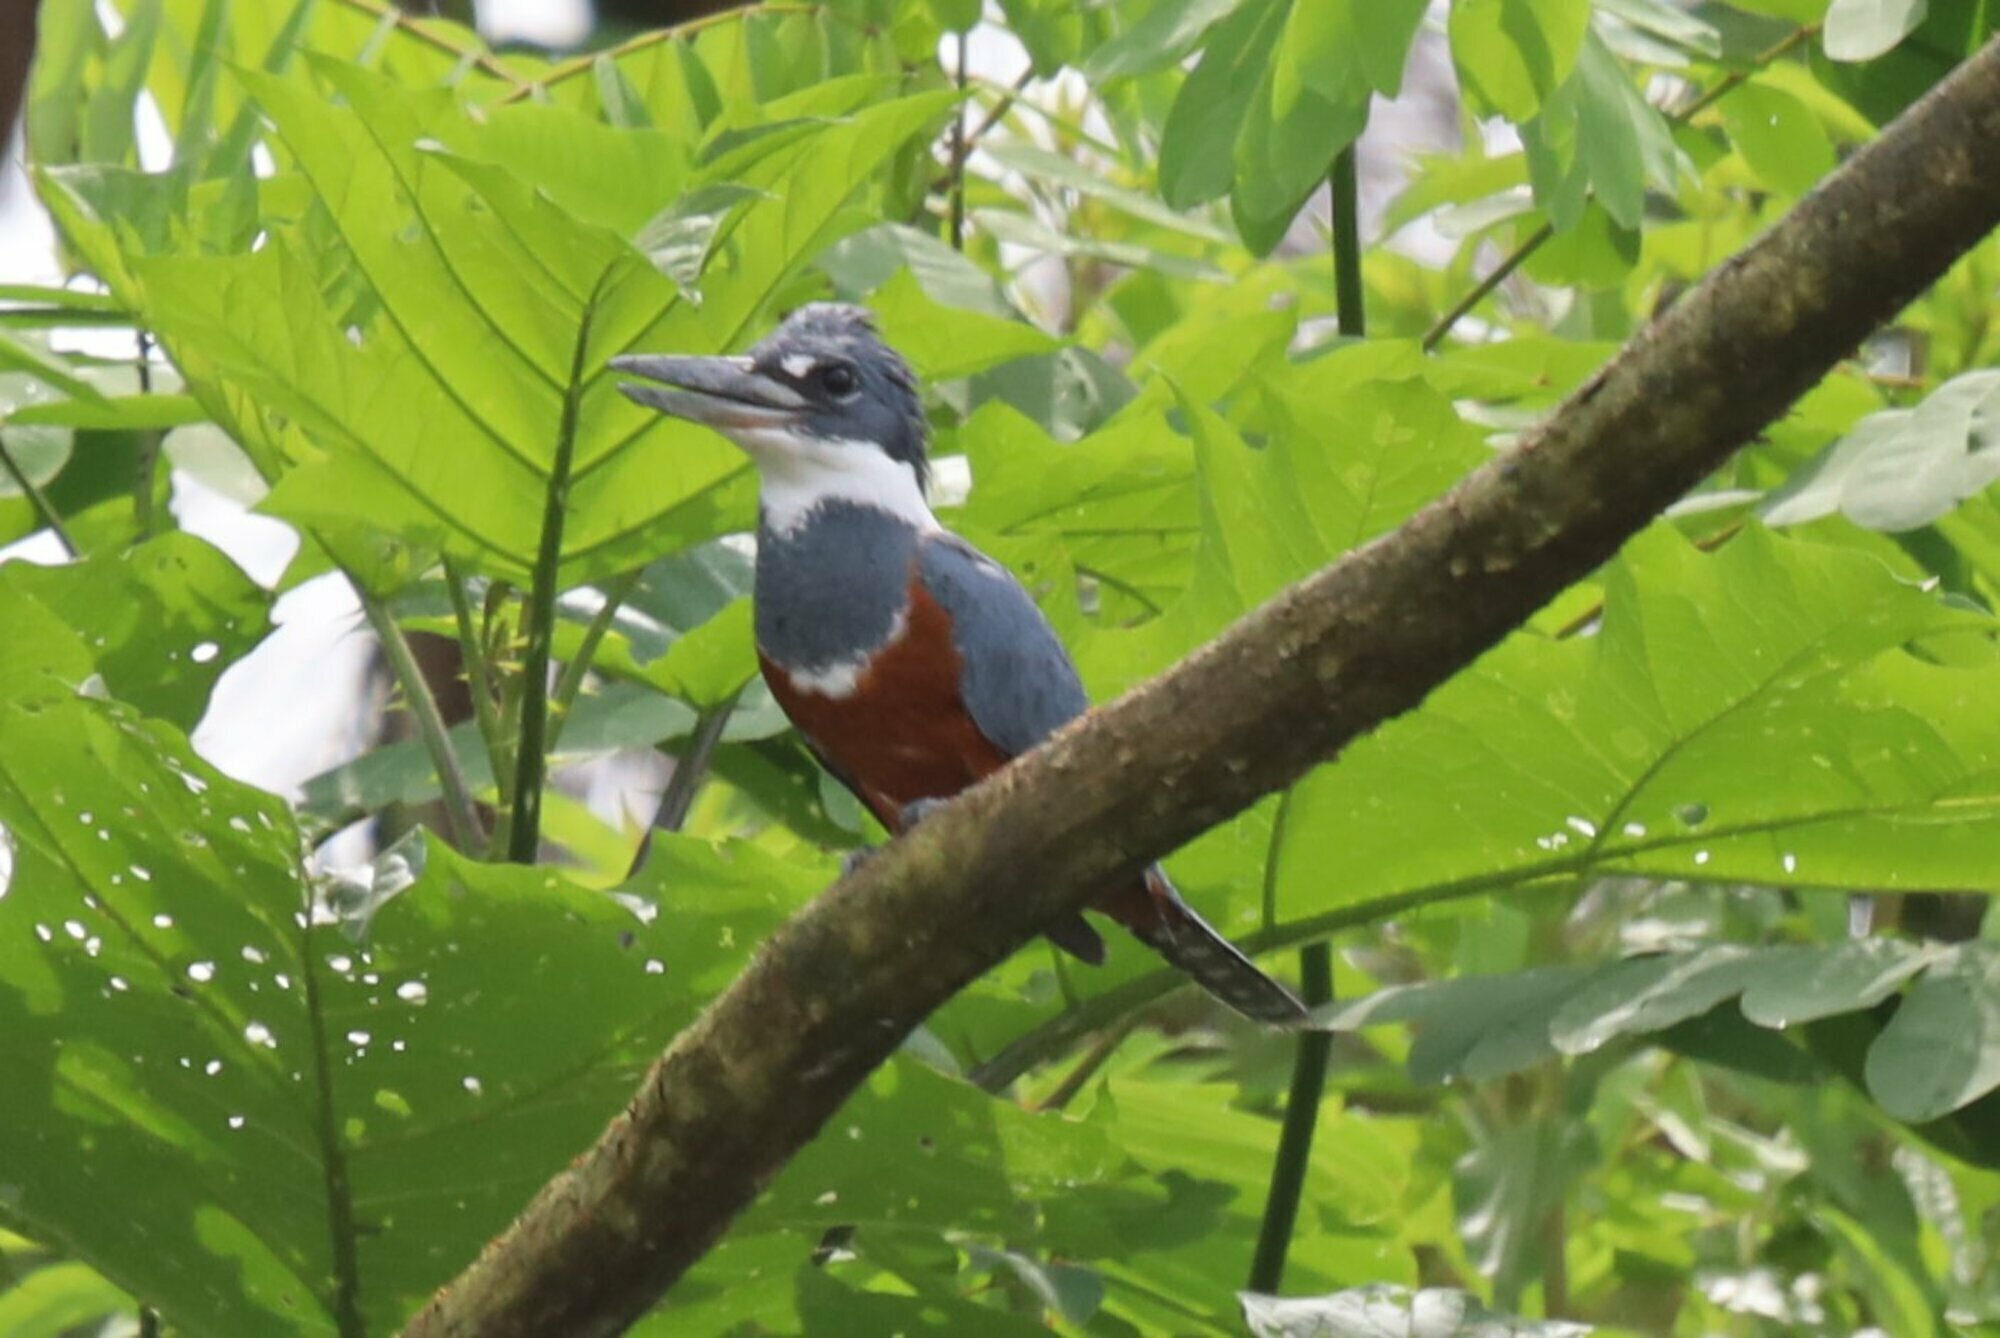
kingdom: Animalia
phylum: Chordata
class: Aves
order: Coraciiformes
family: Alcedinidae
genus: Megaceryle
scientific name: Megaceryle torquata
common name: Ringed kingfisher
